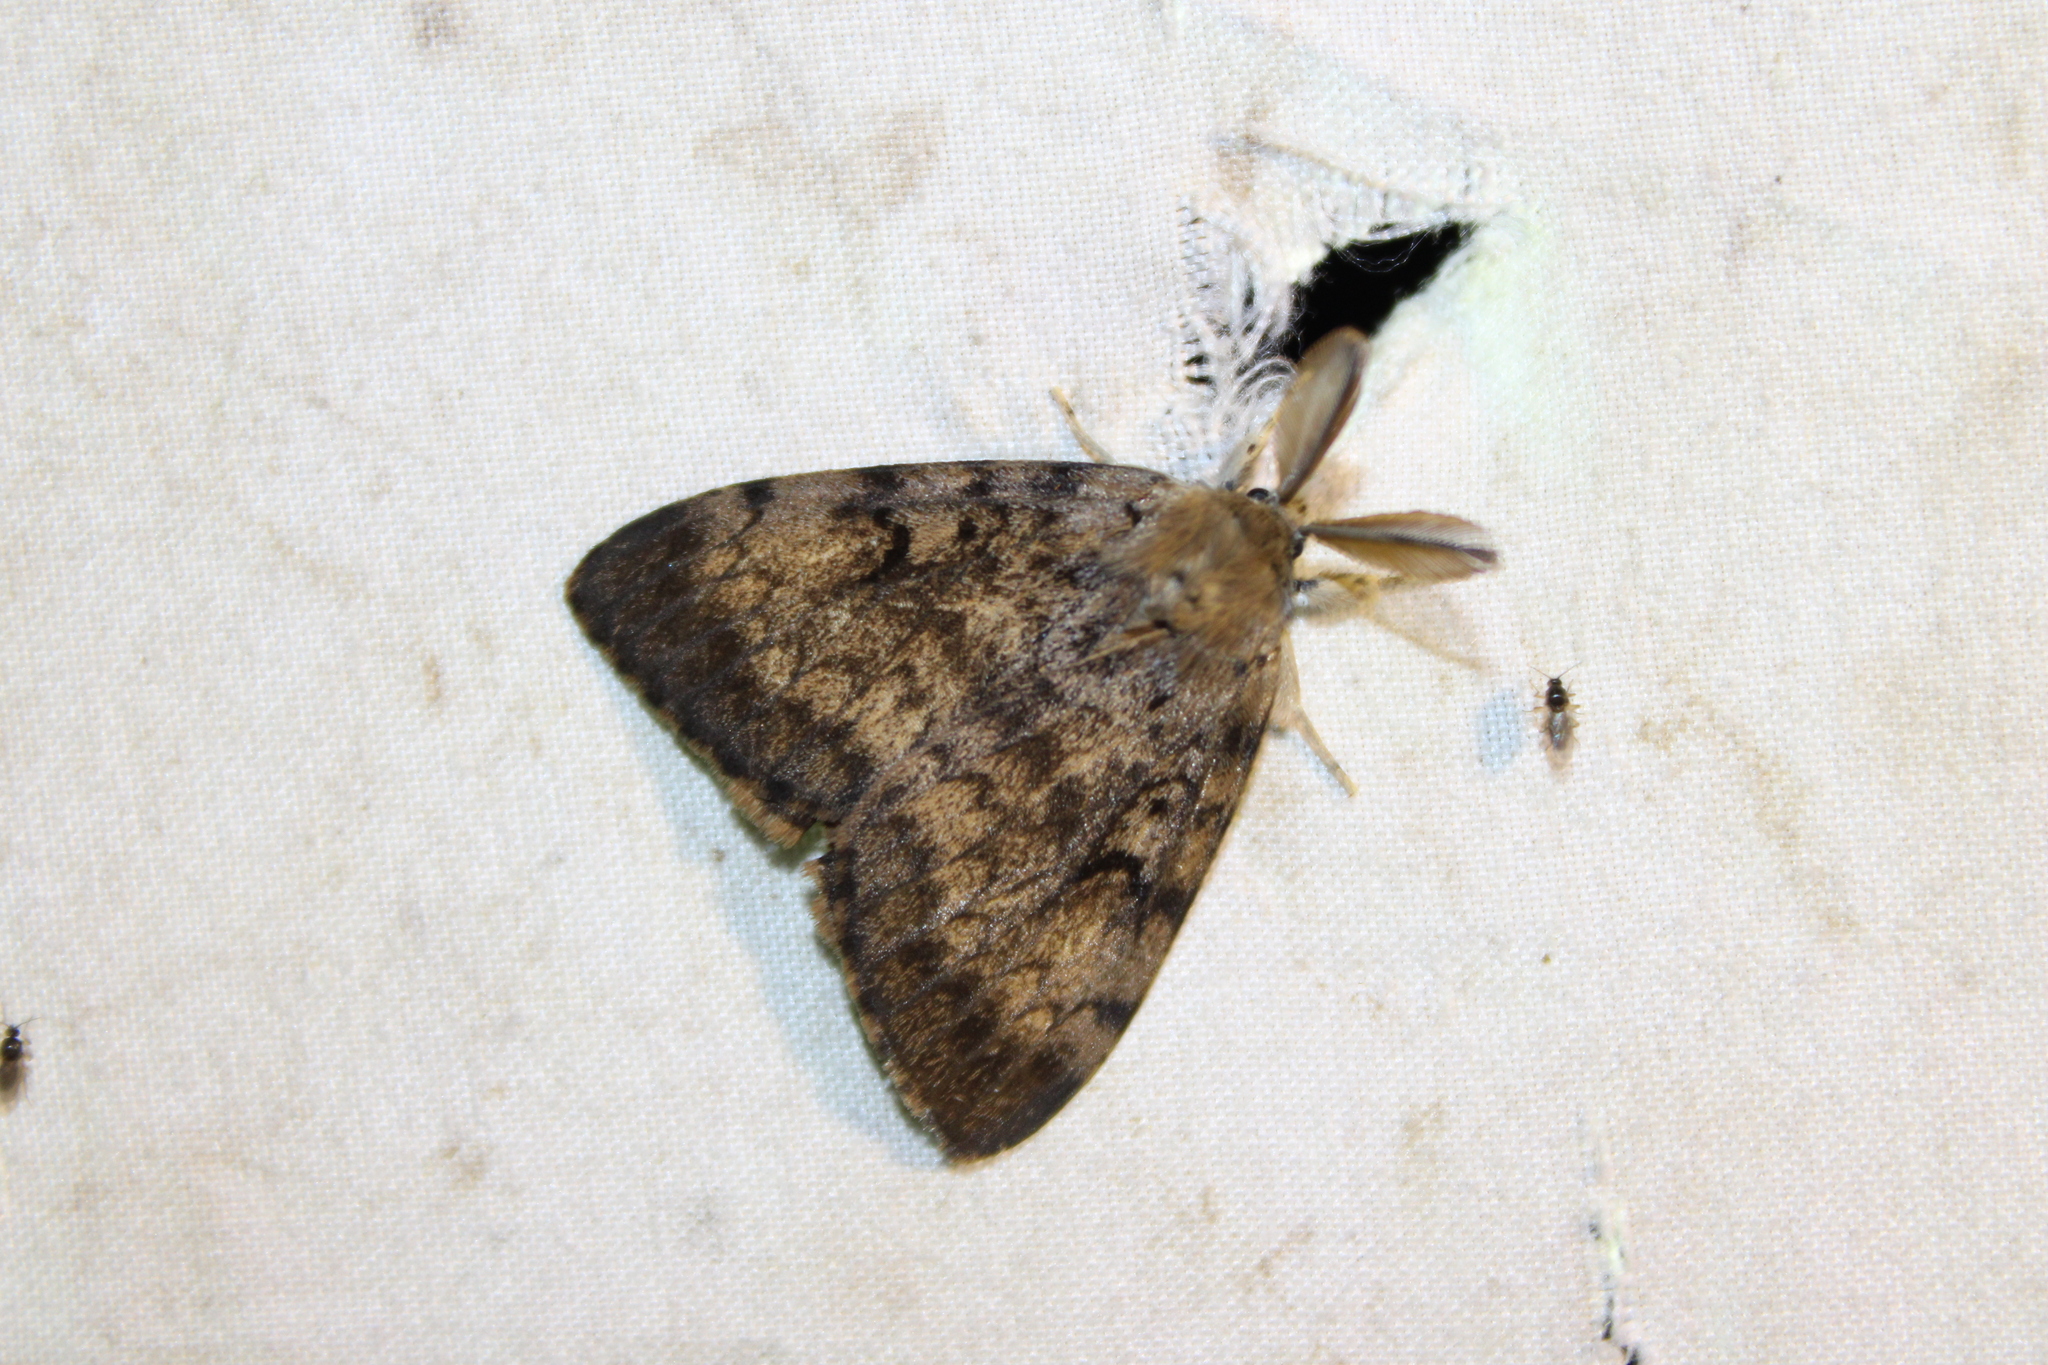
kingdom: Animalia
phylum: Arthropoda
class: Insecta
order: Lepidoptera
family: Erebidae
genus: Lymantria
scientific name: Lymantria dispar
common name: Gypsy moth
